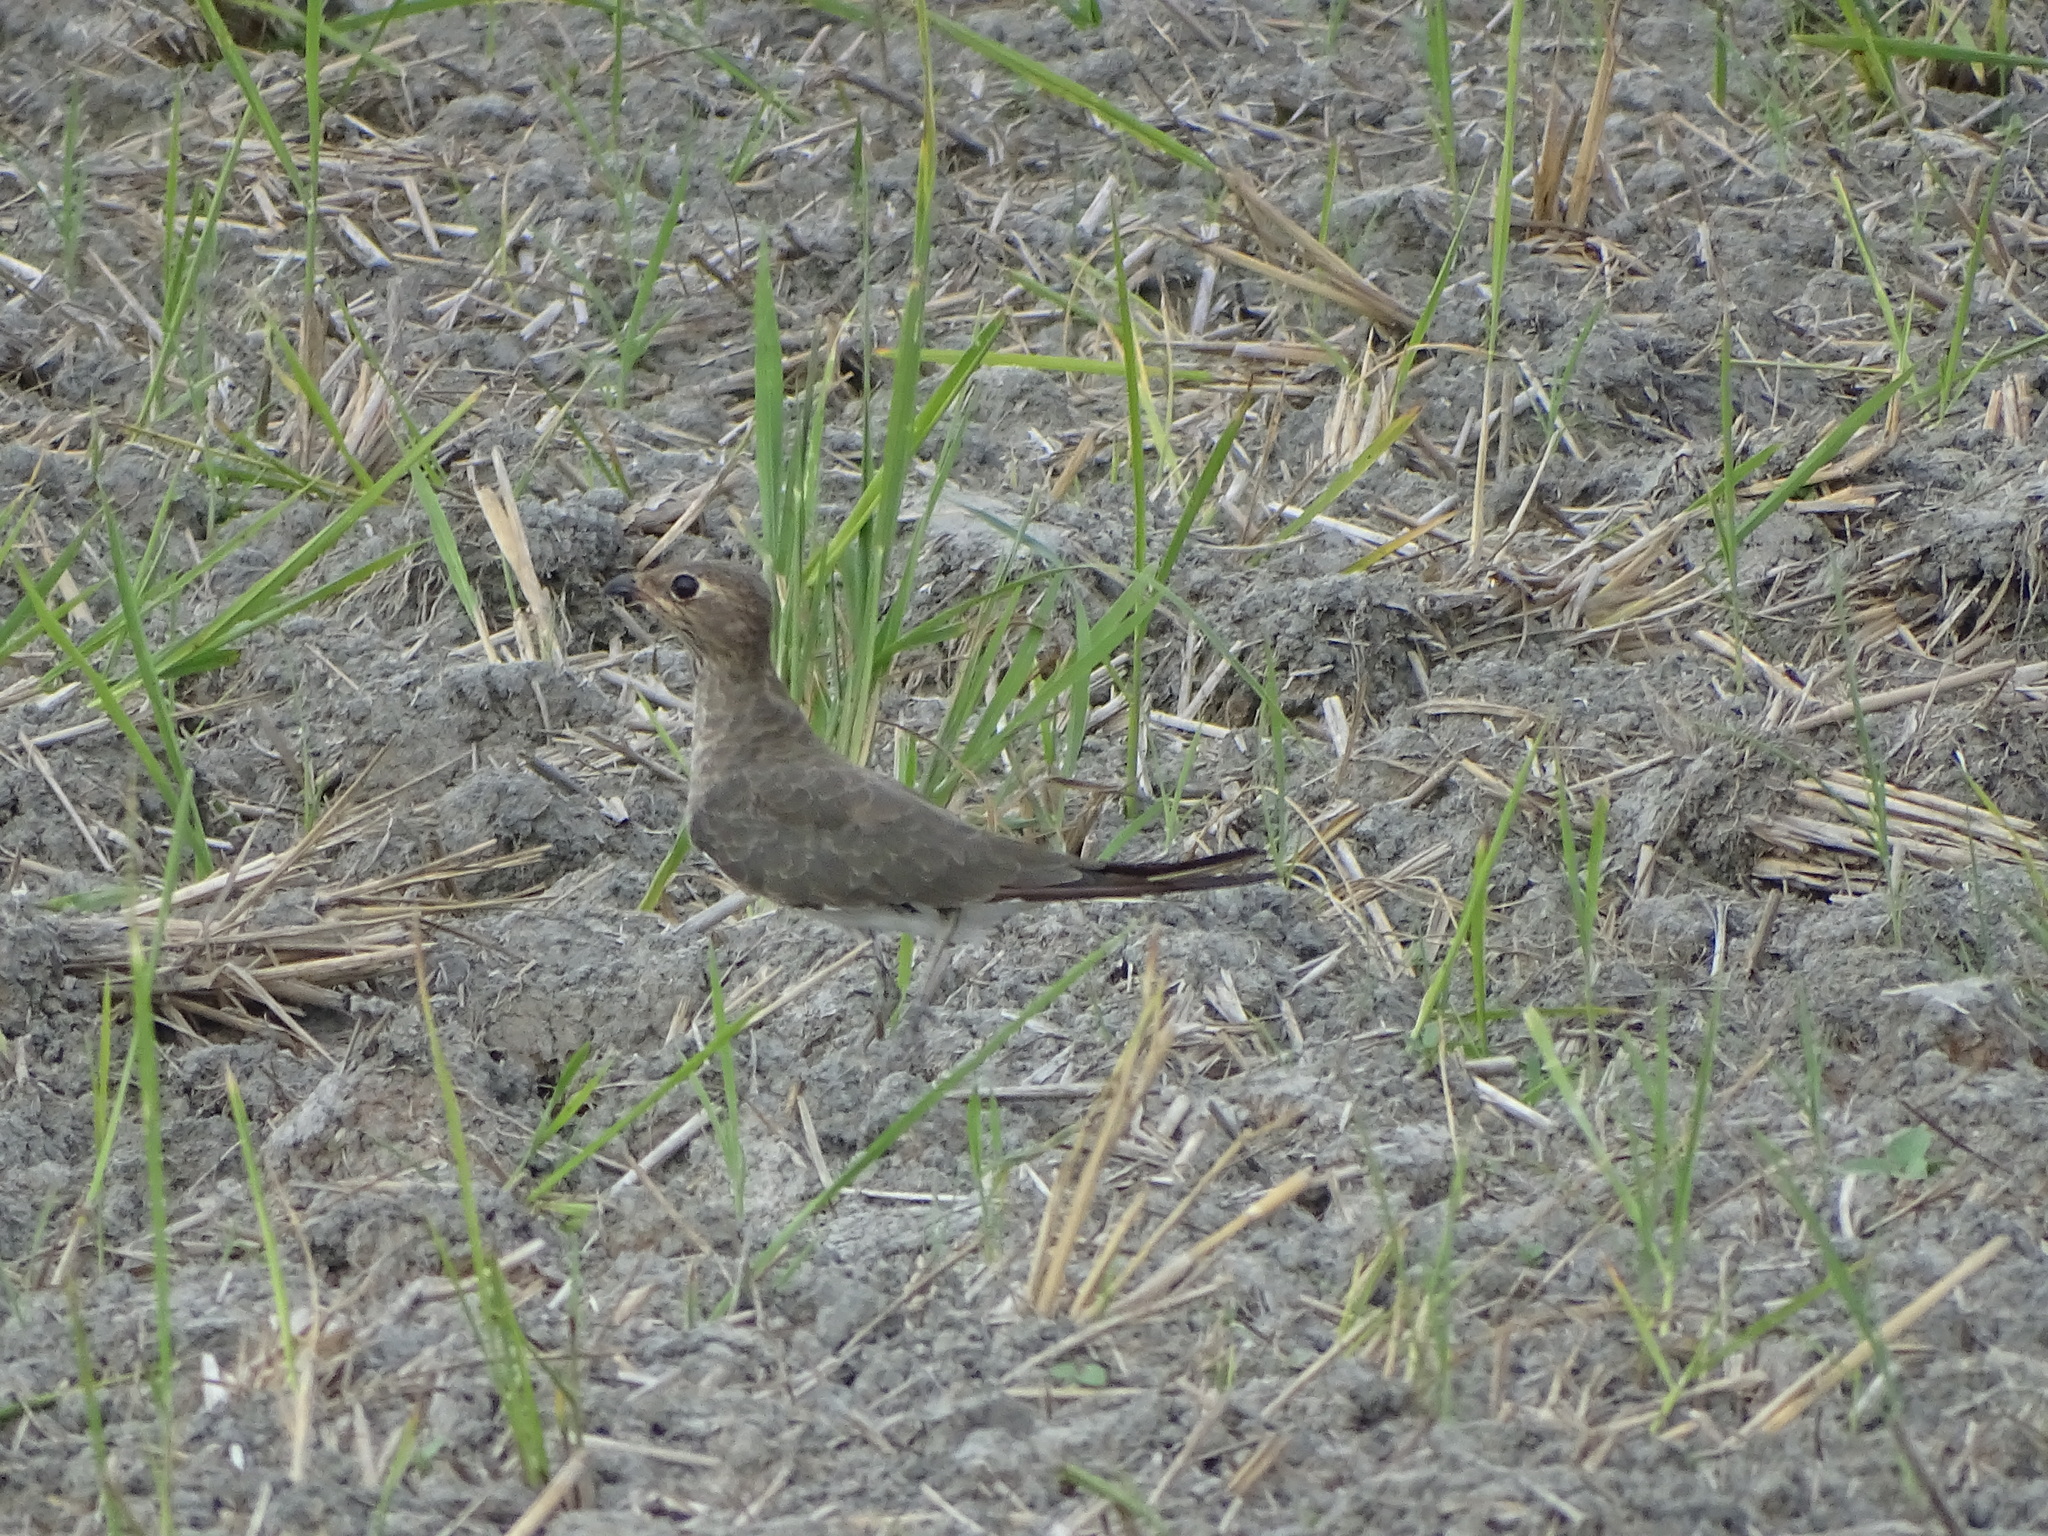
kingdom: Animalia
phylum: Chordata
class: Aves
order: Charadriiformes
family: Glareolidae
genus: Glareola
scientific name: Glareola maldivarum
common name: Oriental pratincole
